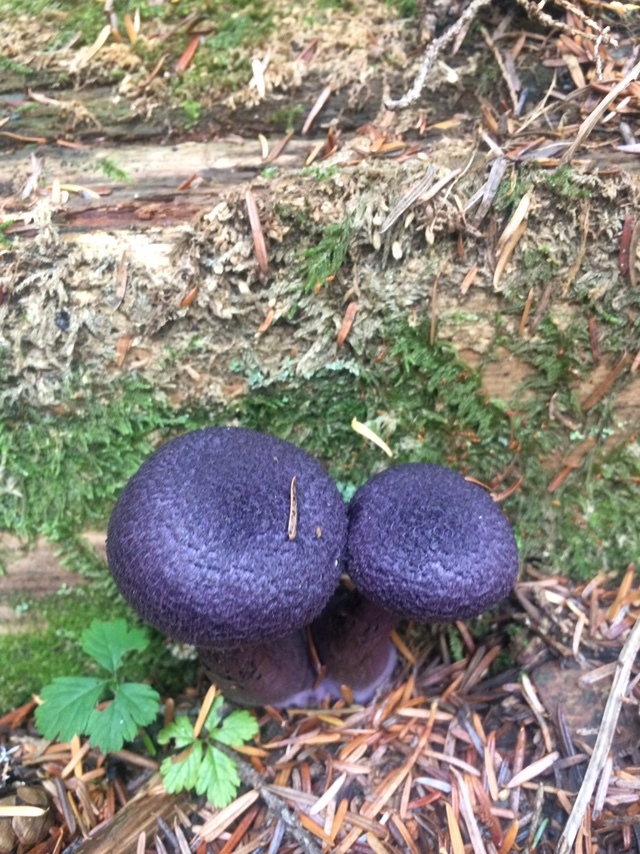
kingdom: Fungi
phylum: Basidiomycota
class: Agaricomycetes
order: Agaricales
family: Cortinariaceae
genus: Cortinarius
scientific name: Cortinarius violaceus
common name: Violet webcap
